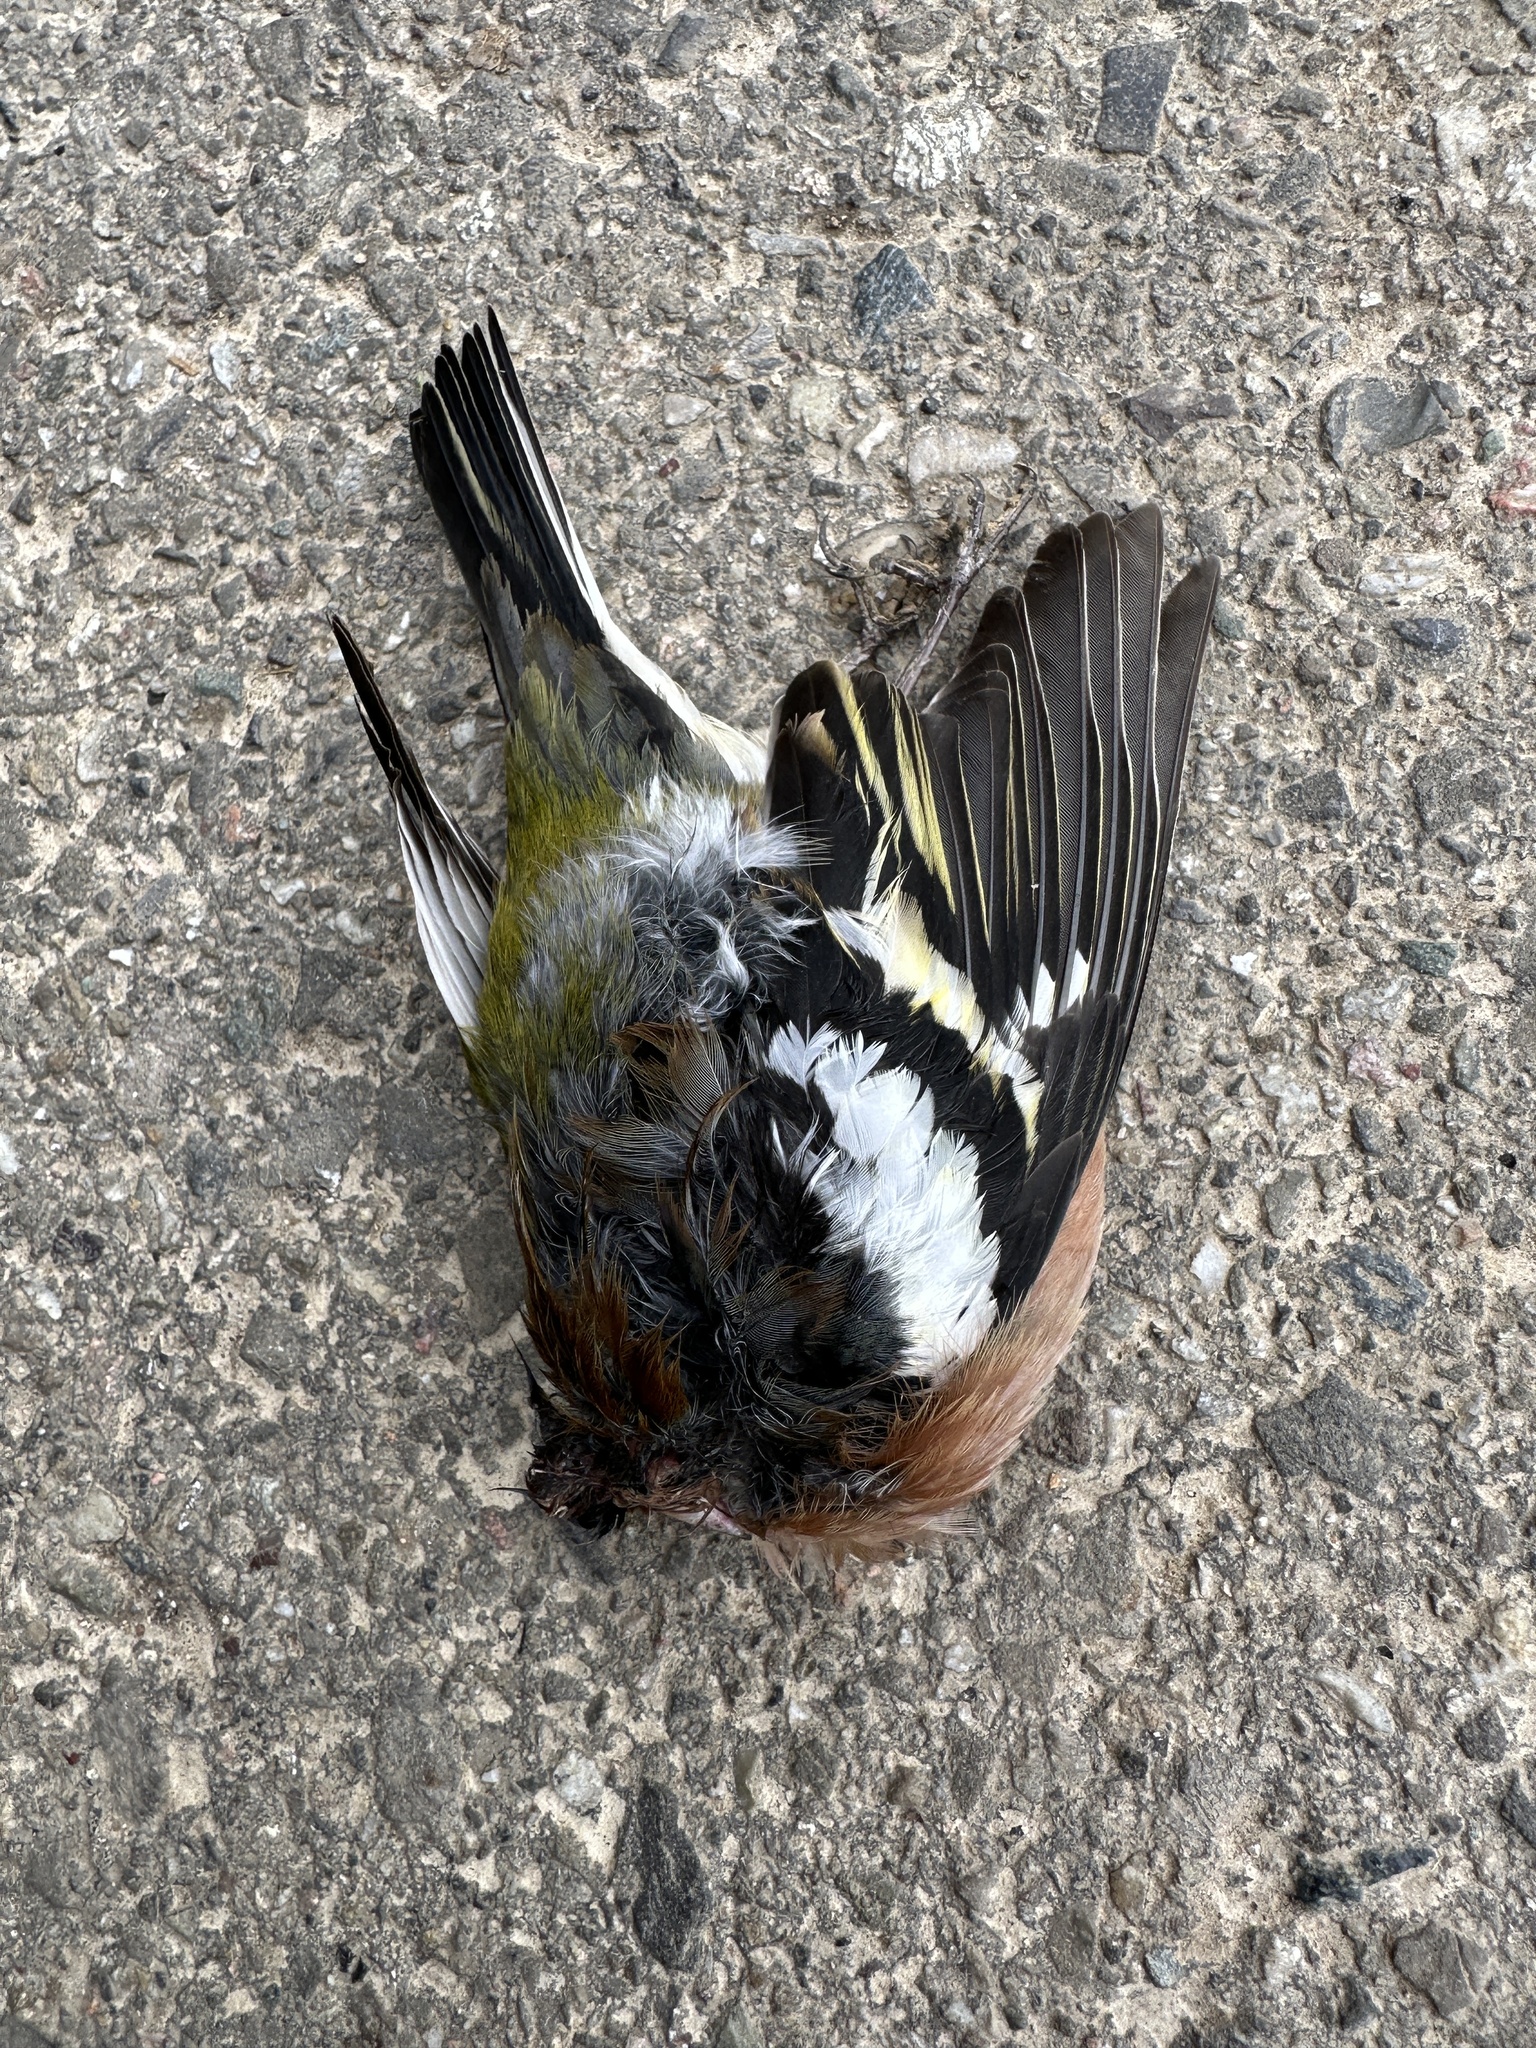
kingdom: Animalia
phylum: Chordata
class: Aves
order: Passeriformes
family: Fringillidae
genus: Fringilla
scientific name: Fringilla coelebs
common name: Common chaffinch
